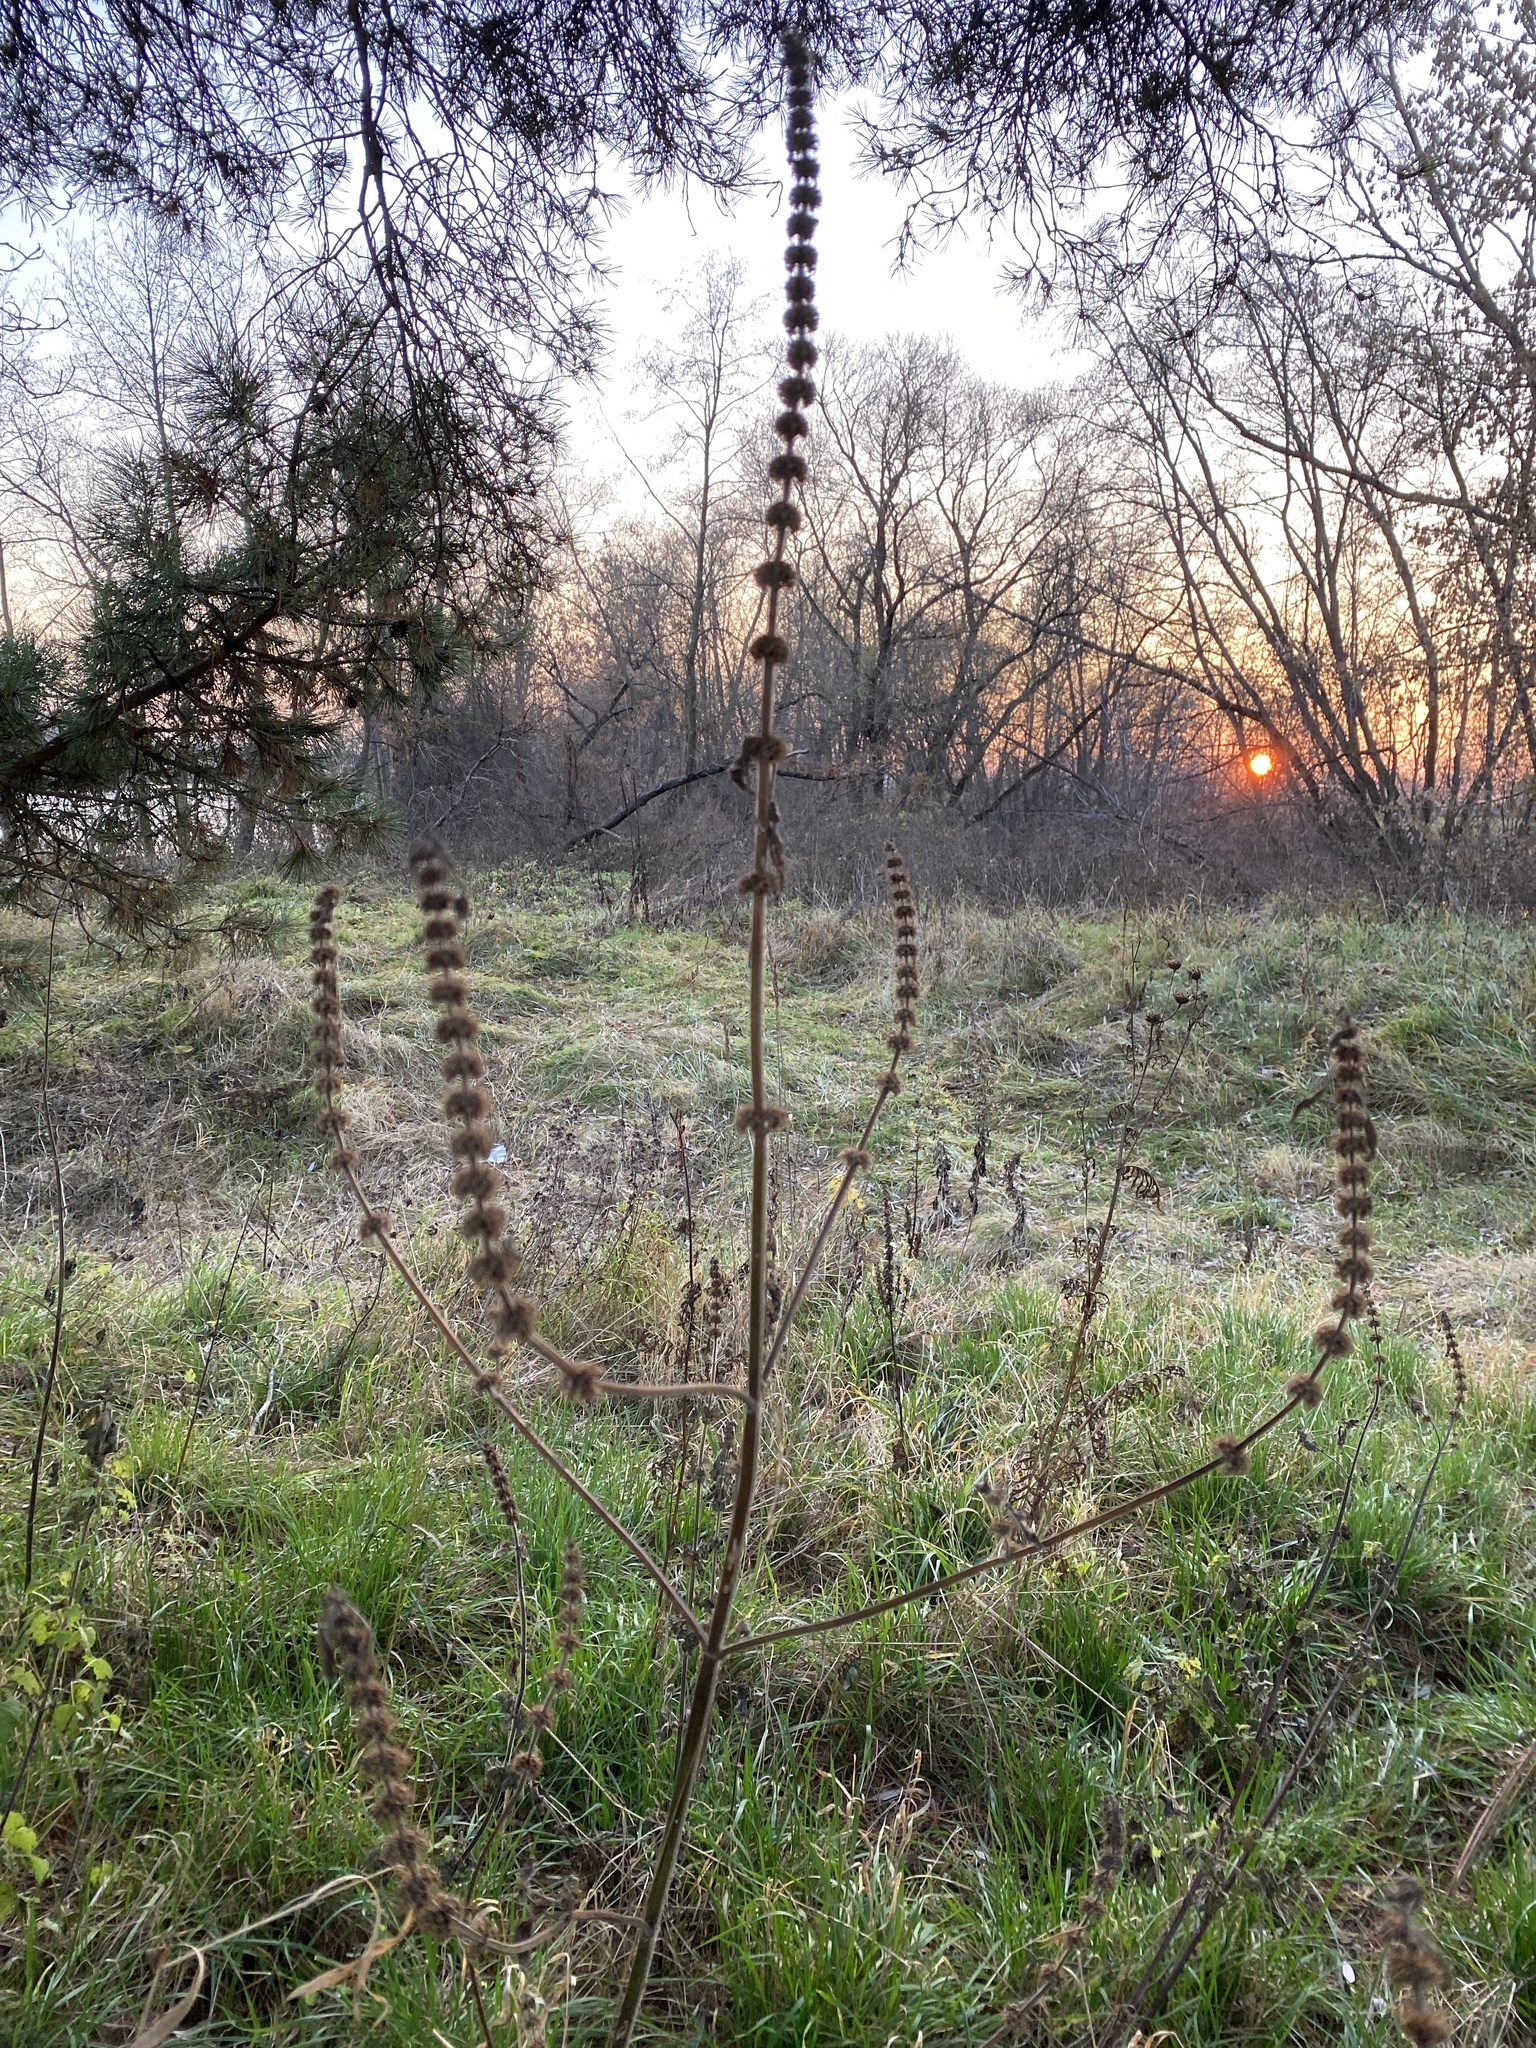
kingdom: Plantae
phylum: Tracheophyta
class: Magnoliopsida
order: Lamiales
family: Lamiaceae
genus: Leonurus
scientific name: Leonurus quinquelobatus
